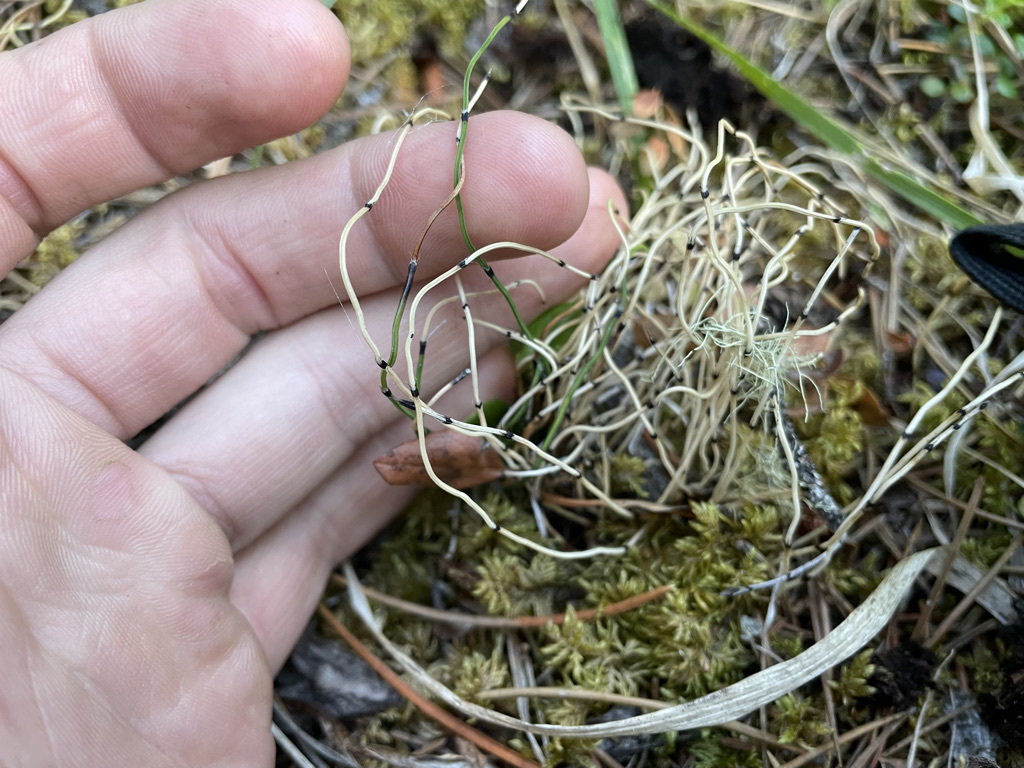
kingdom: Plantae
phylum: Tracheophyta
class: Polypodiopsida
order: Equisetales
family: Equisetaceae
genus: Equisetum
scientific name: Equisetum scirpoides
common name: Delicate horsetail
